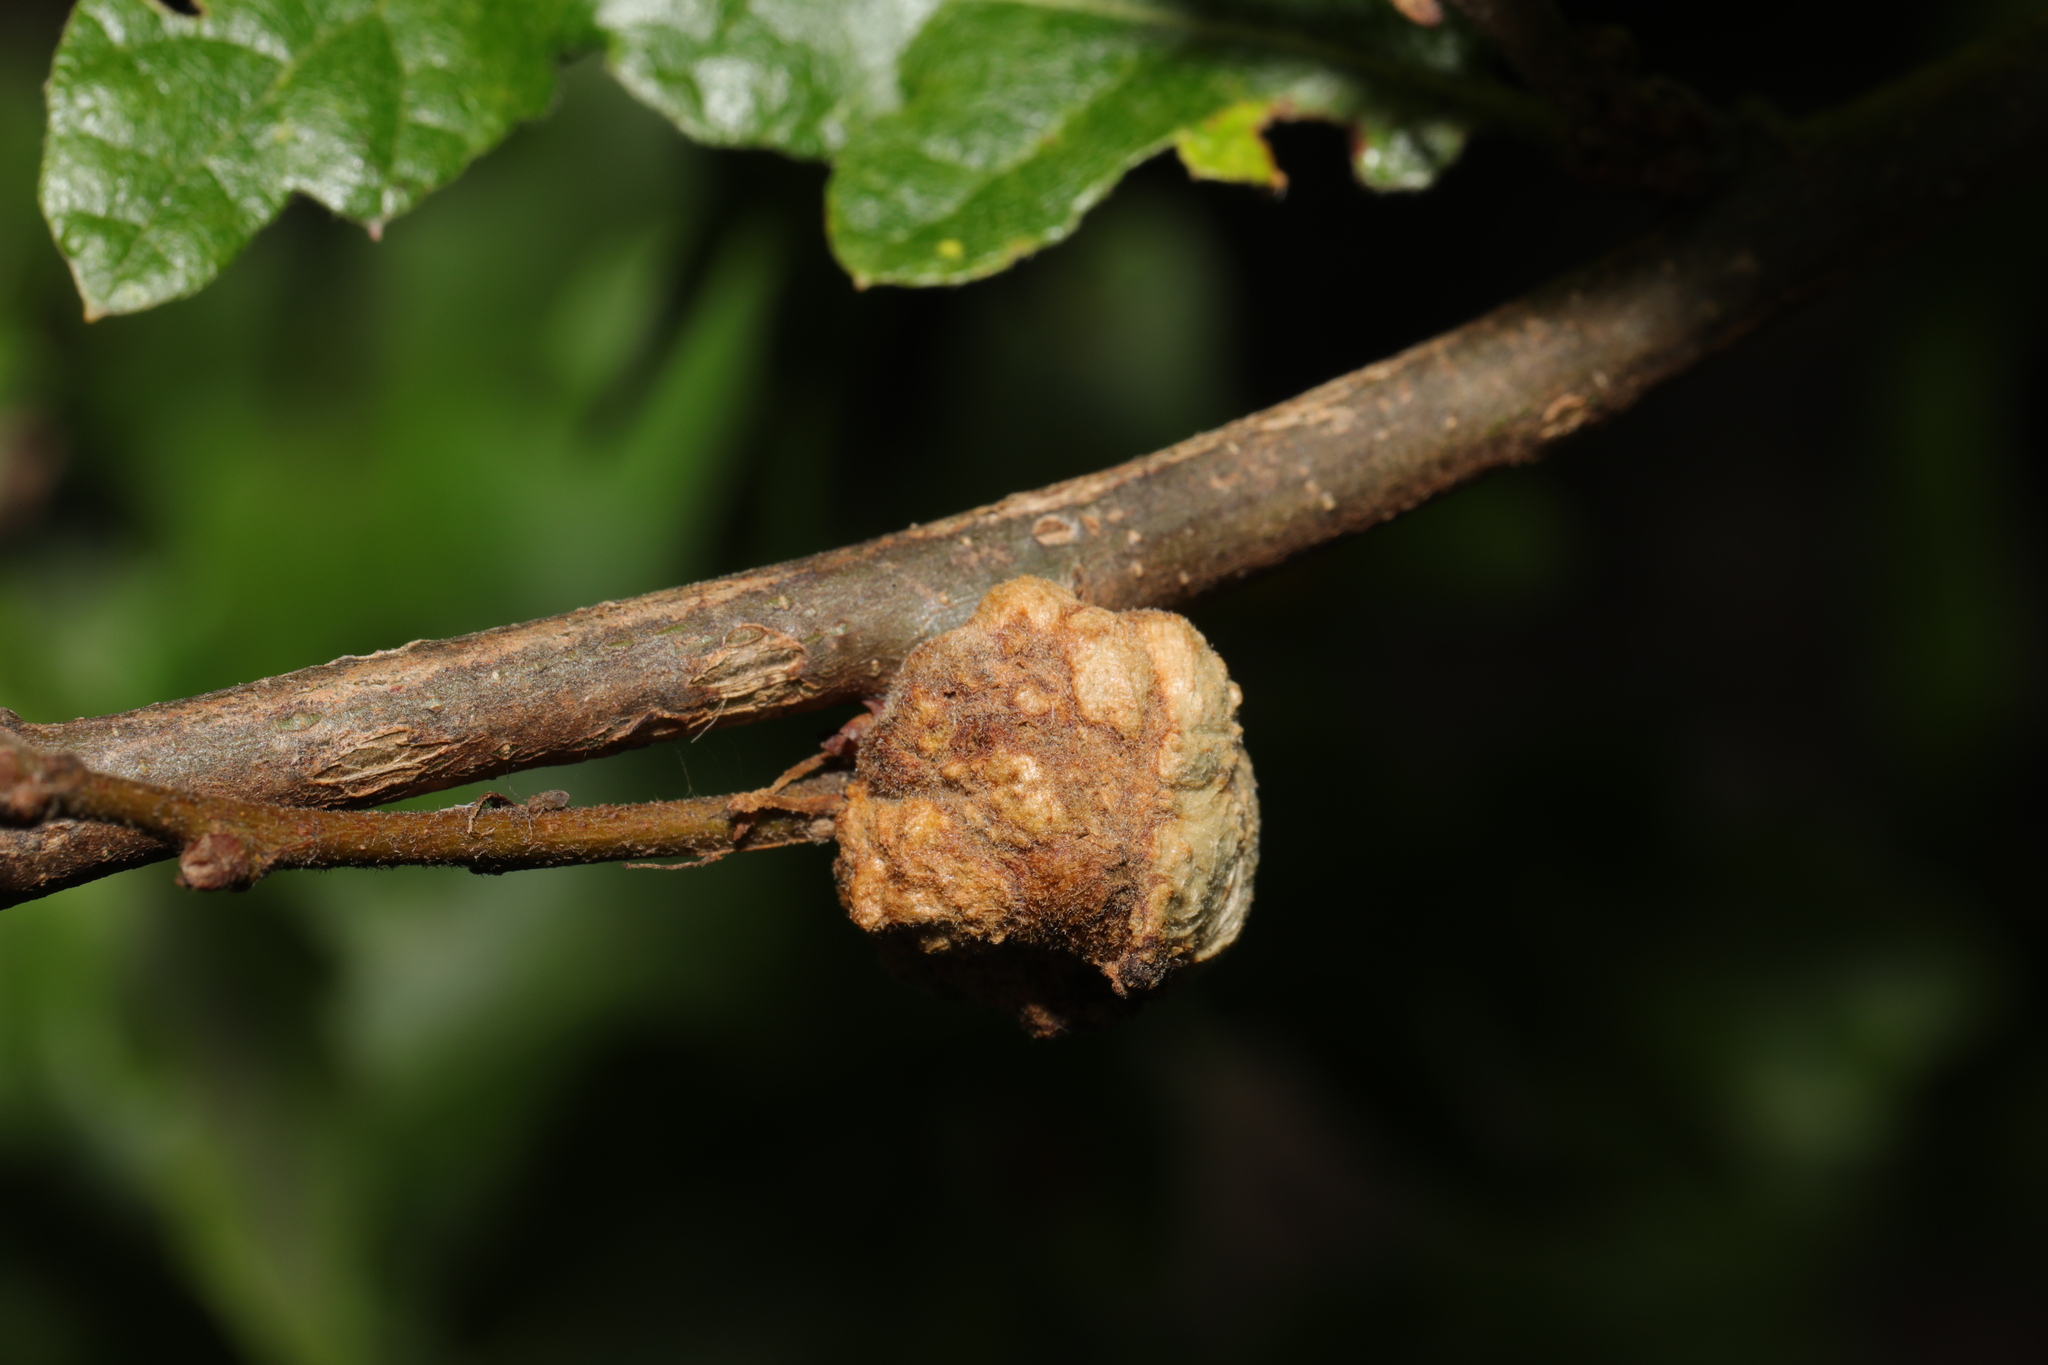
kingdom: Animalia
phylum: Arthropoda
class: Insecta
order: Hymenoptera
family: Cynipidae
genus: Aphelonyx
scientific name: Aphelonyx cerricola
